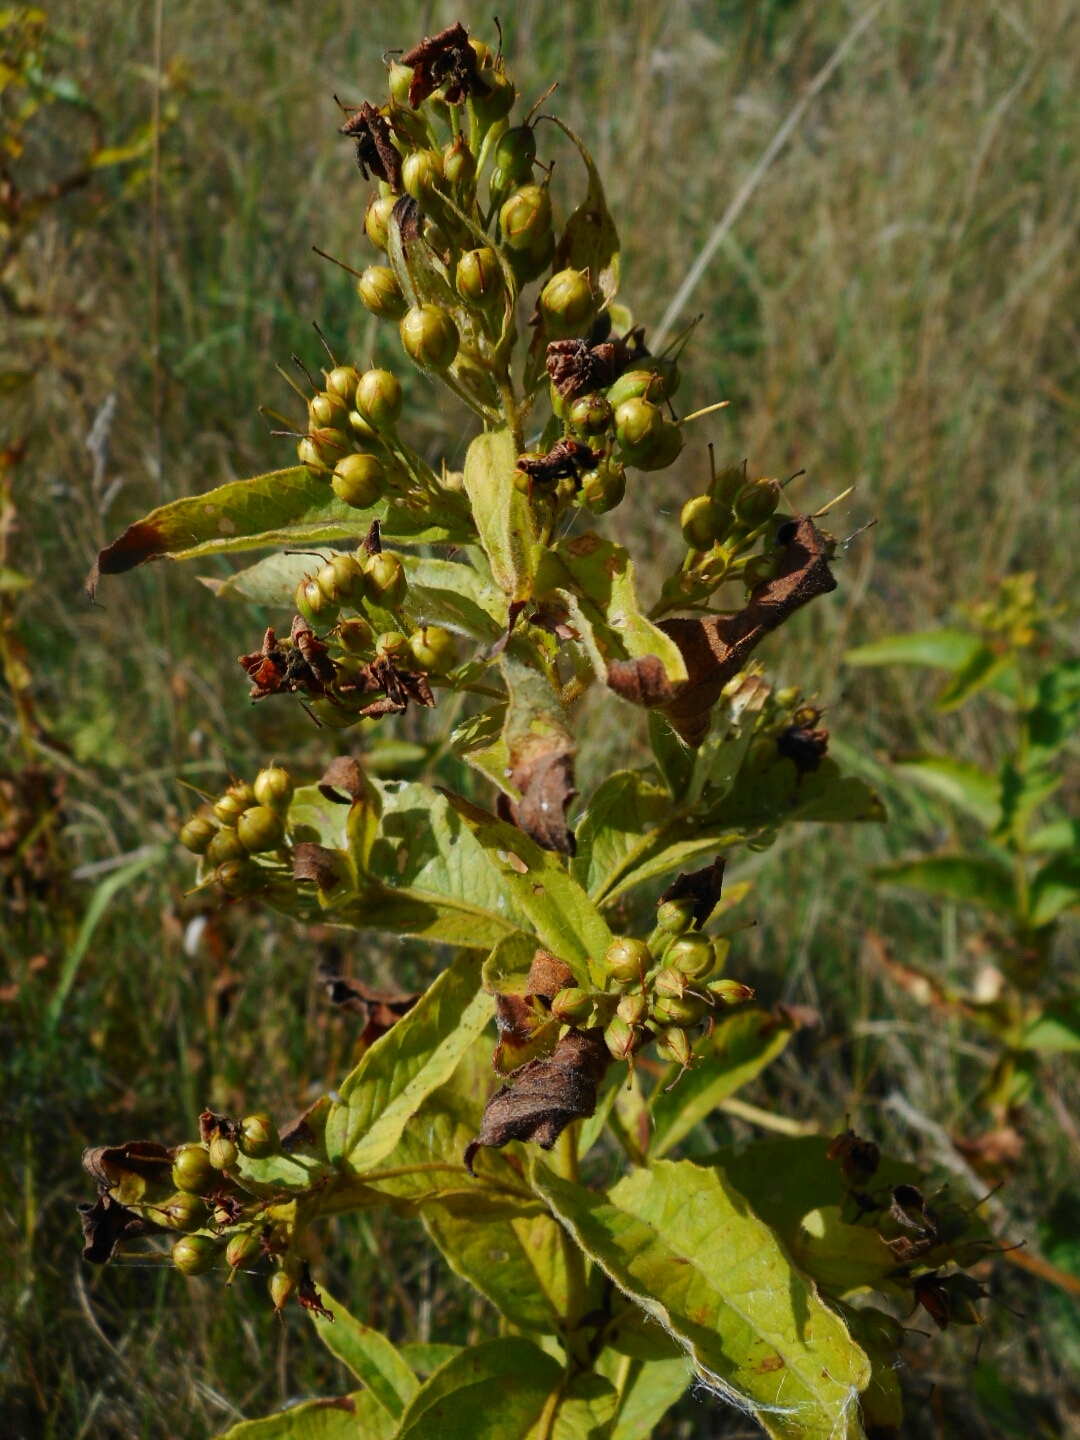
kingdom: Plantae
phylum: Tracheophyta
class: Magnoliopsida
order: Ericales
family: Primulaceae
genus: Lysimachia
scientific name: Lysimachia vulgaris
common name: Yellow loosestrife
